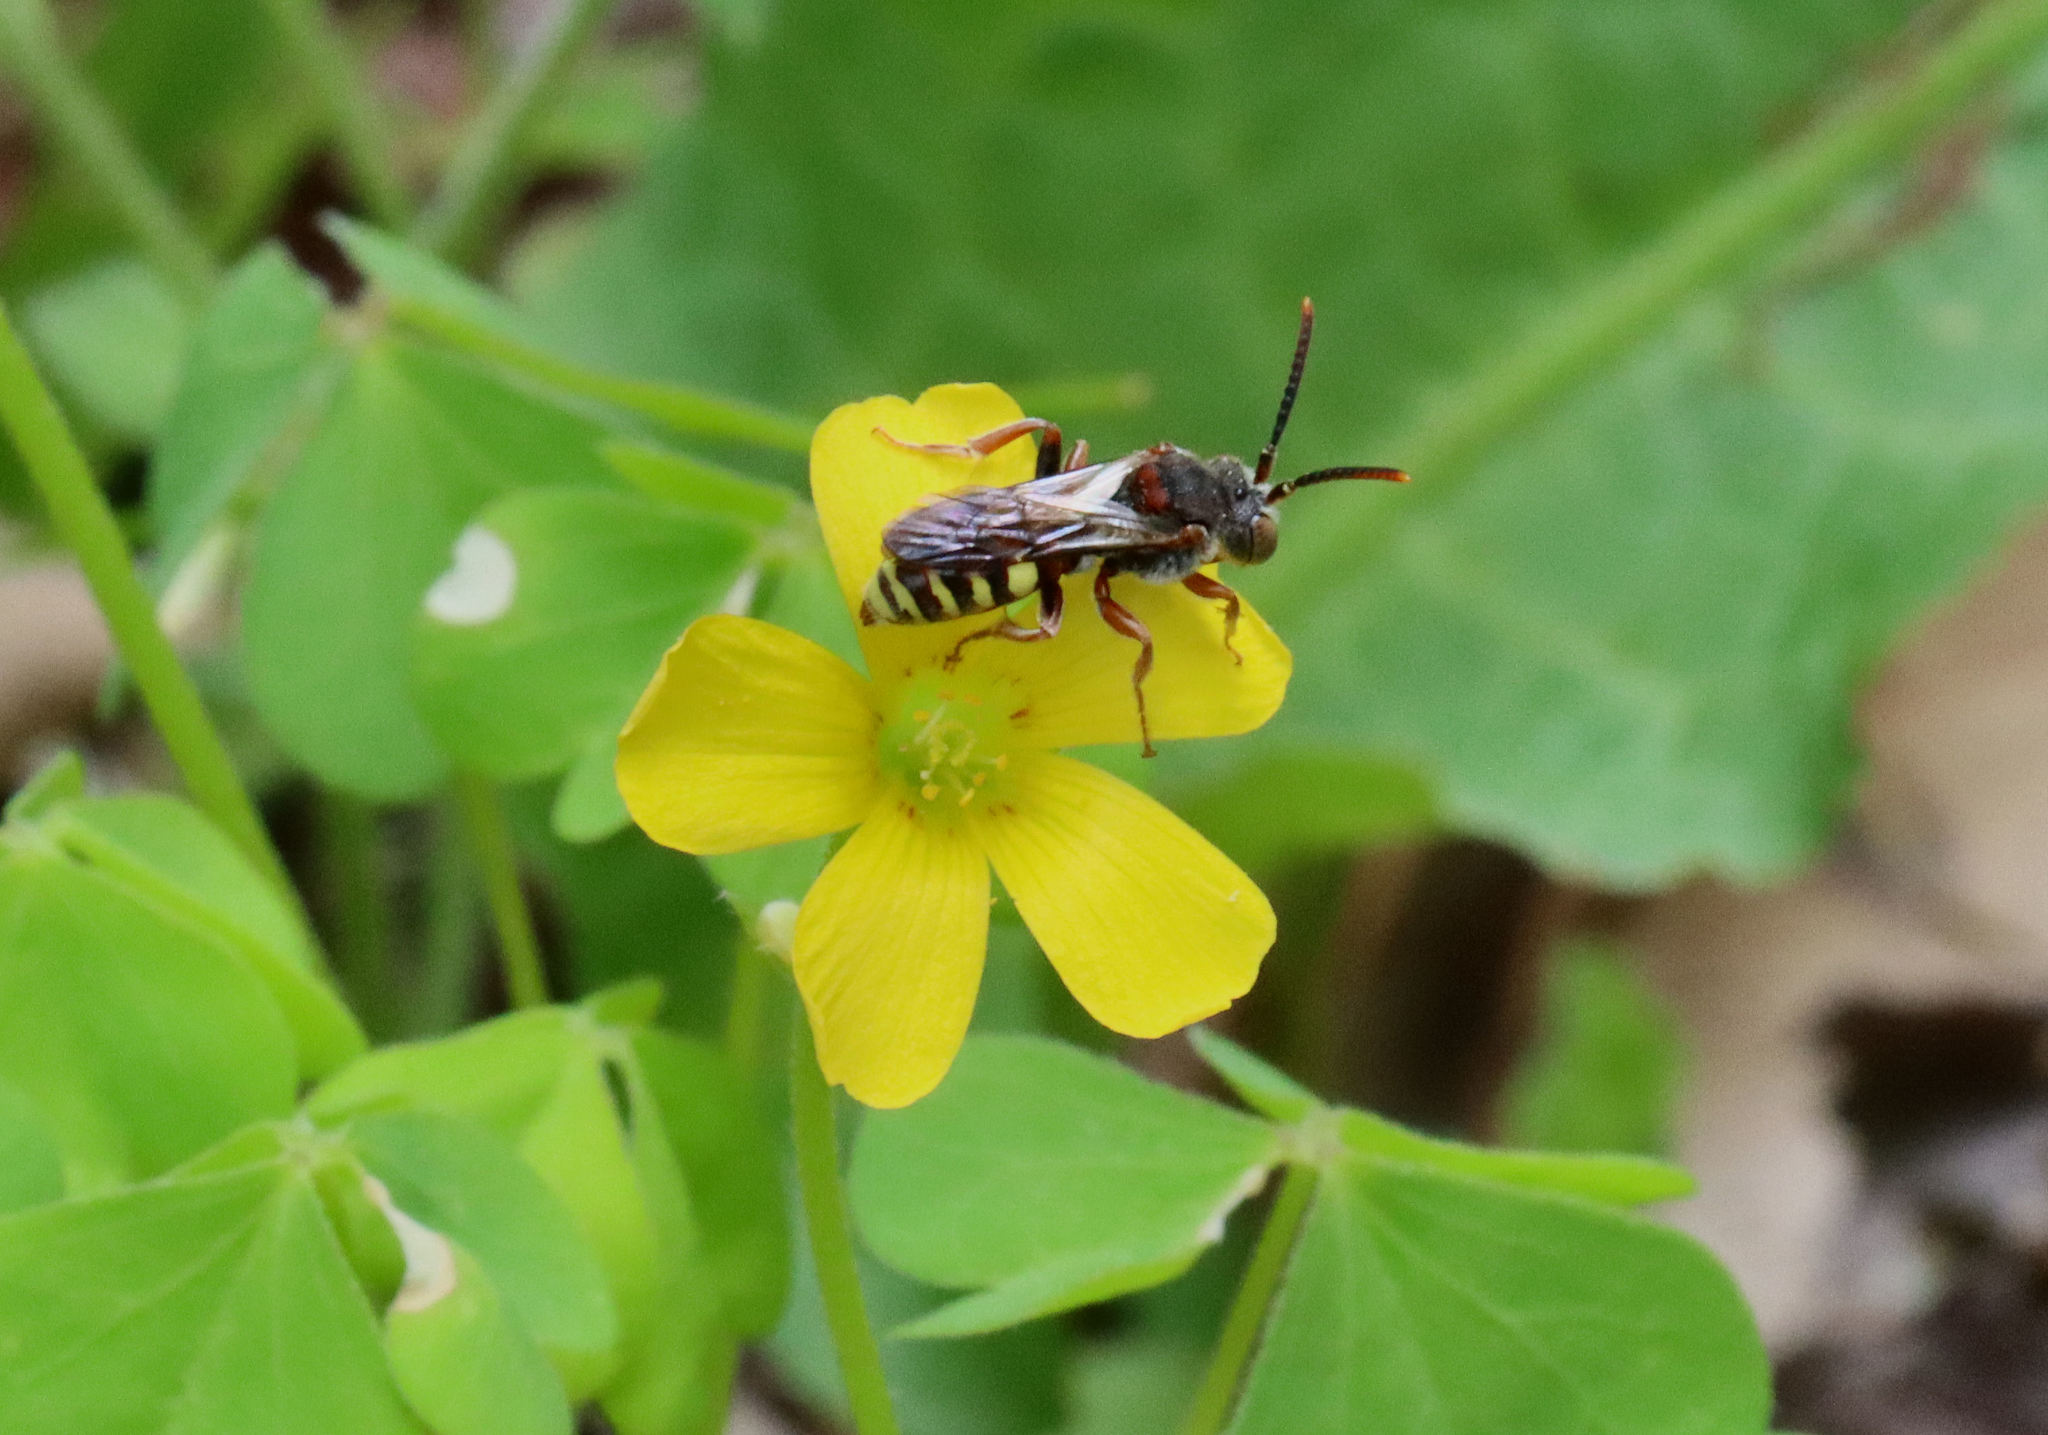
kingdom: Animalia
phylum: Arthropoda
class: Insecta
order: Hymenoptera
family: Apidae
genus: Nomada
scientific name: Nomada
